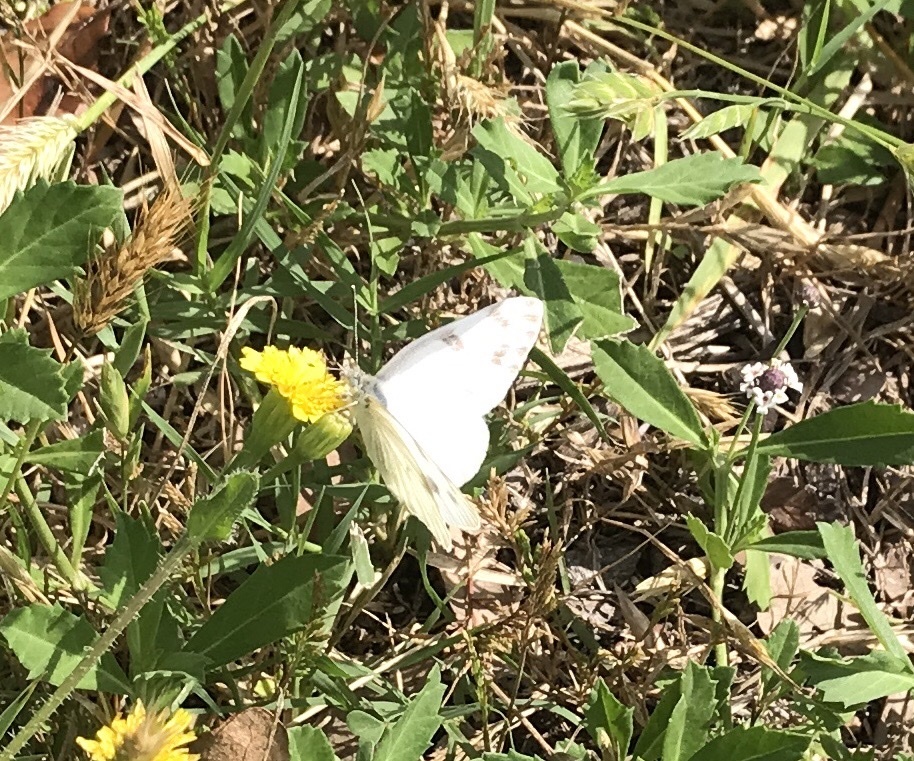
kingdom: Animalia
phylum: Arthropoda
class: Insecta
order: Lepidoptera
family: Pieridae
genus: Pontia
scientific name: Pontia protodice
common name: Checkered white
